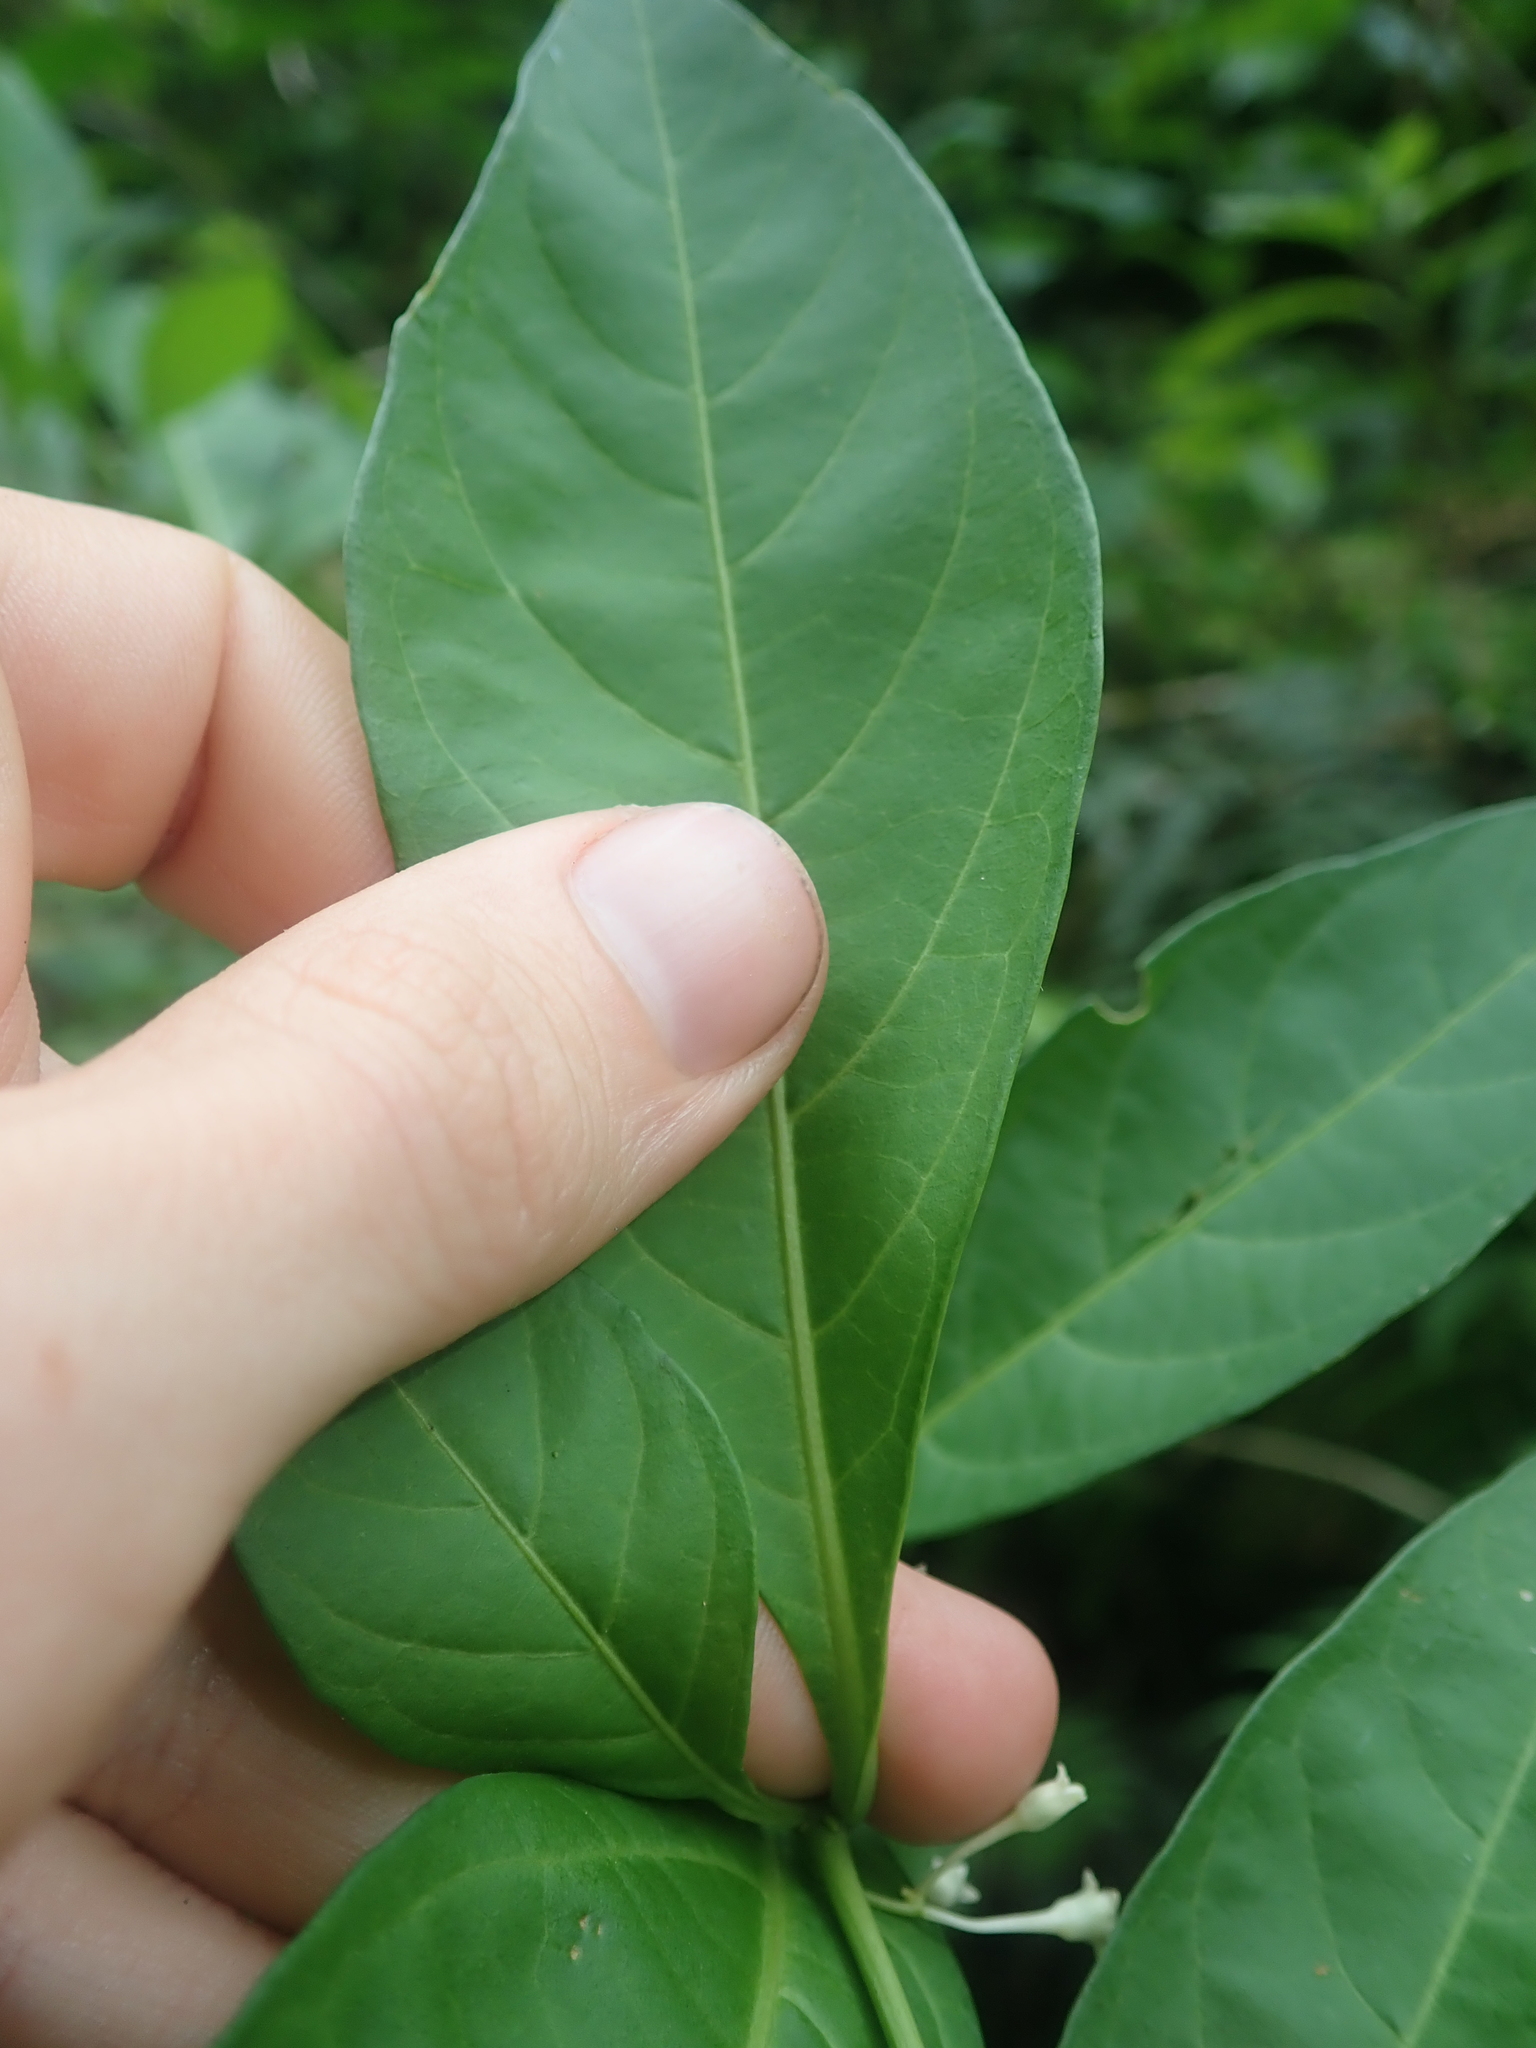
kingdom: Plantae
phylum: Tracheophyta
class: Magnoliopsida
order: Solanales
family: Solanaceae
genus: Solanum
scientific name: Solanum symmetricum
